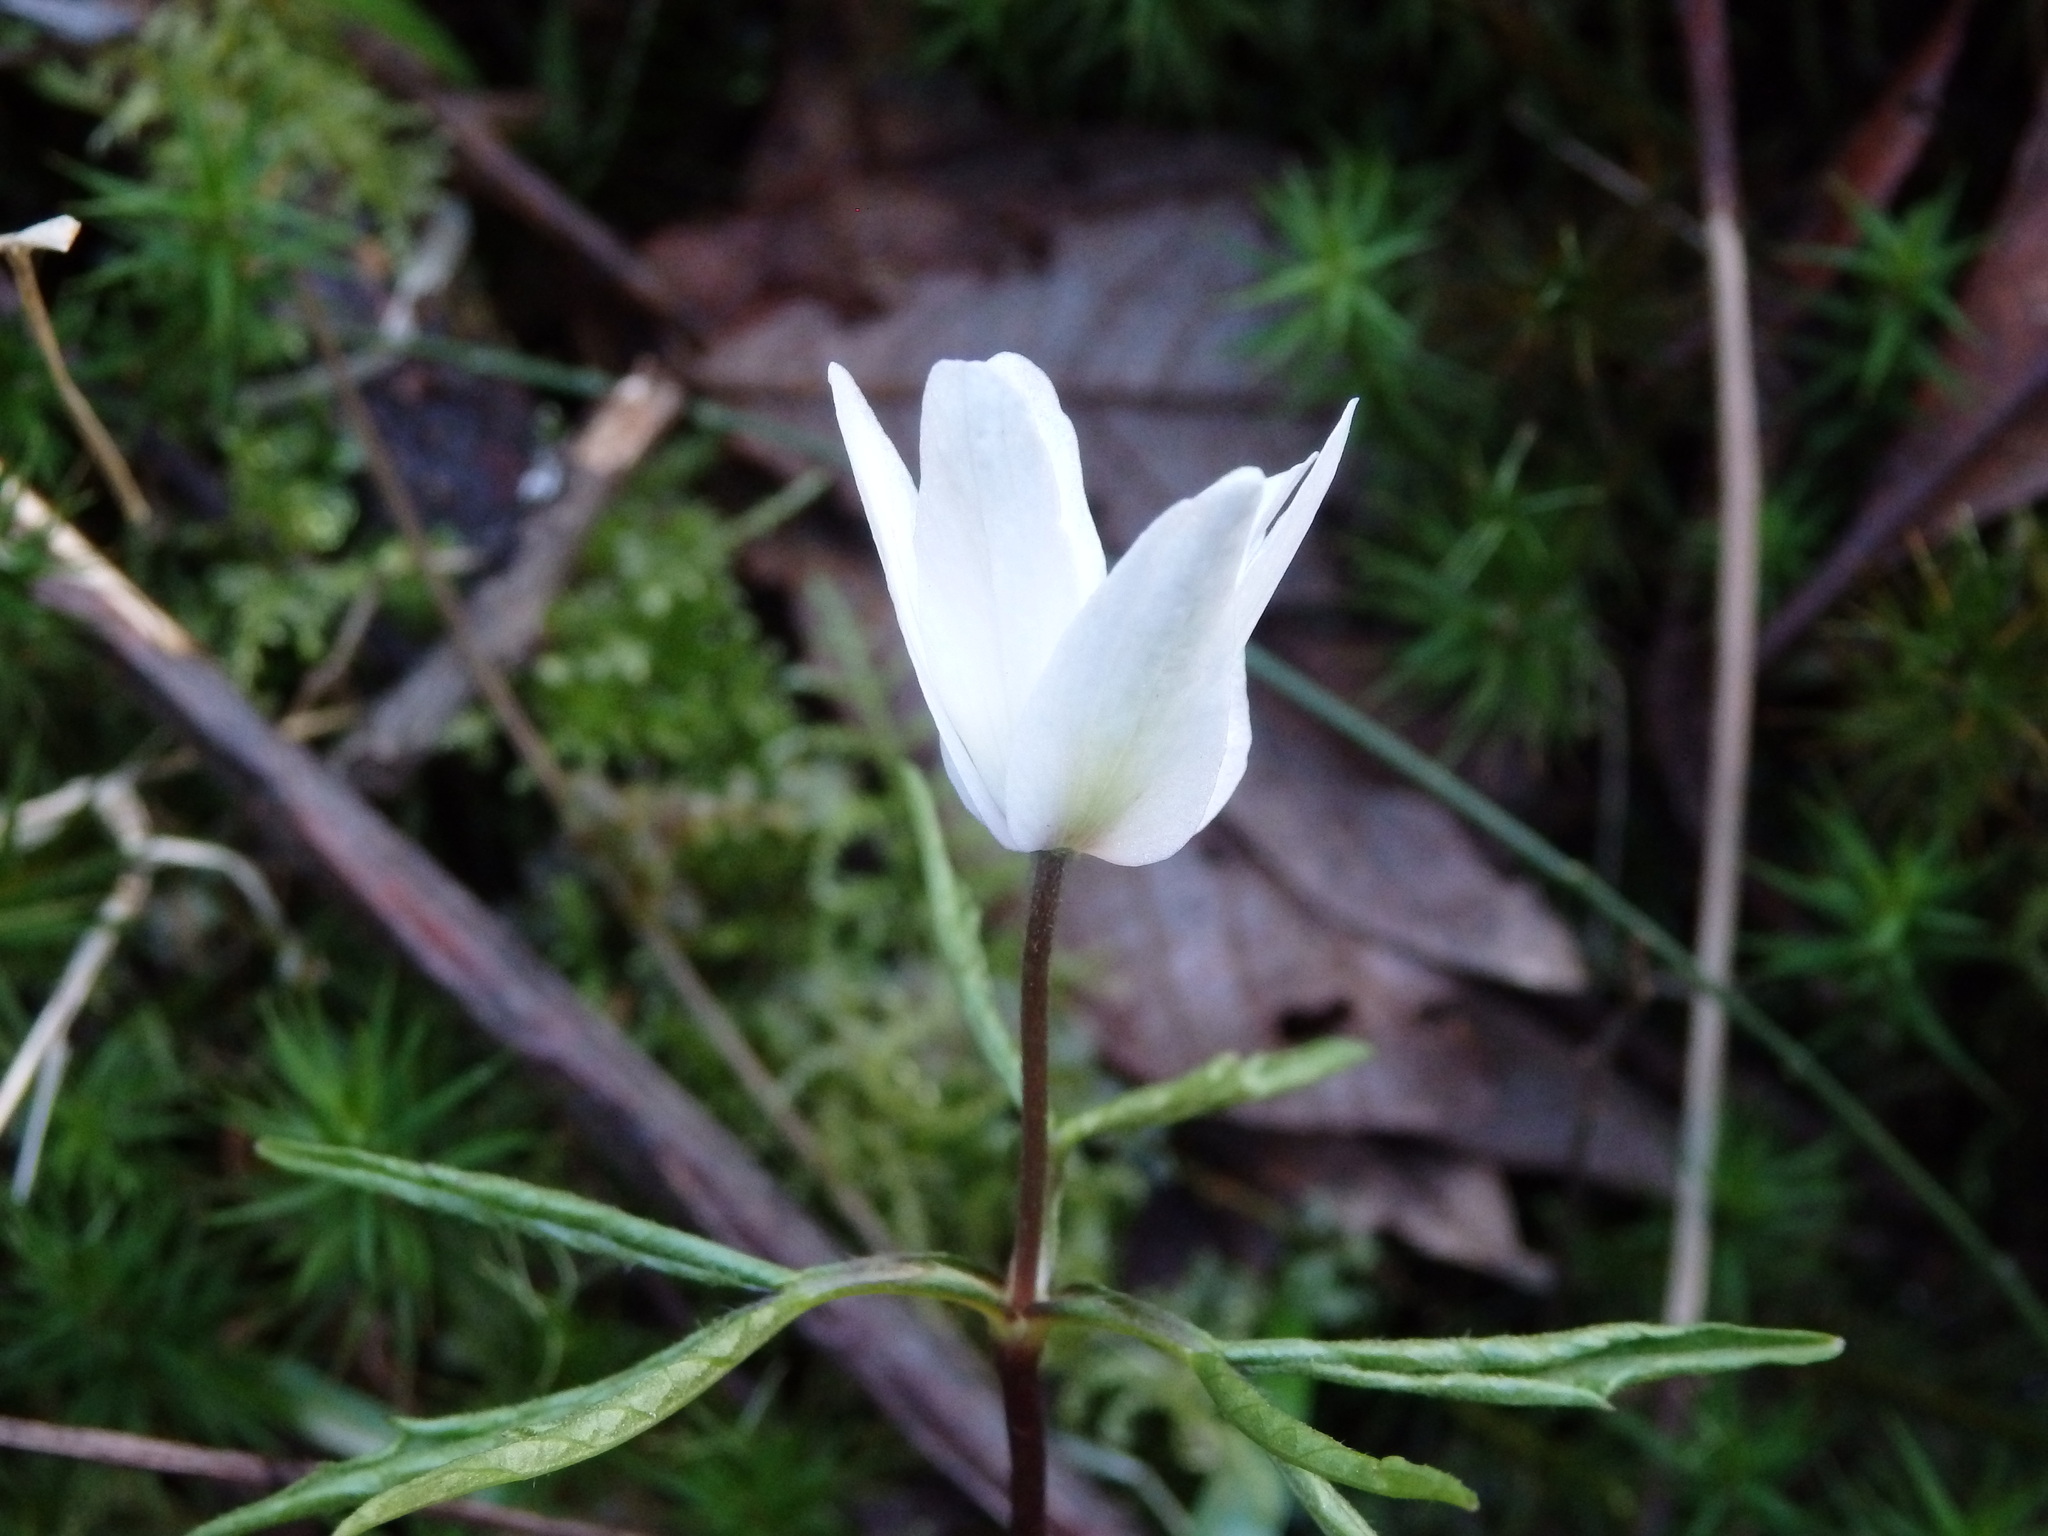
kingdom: Plantae
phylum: Tracheophyta
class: Magnoliopsida
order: Ranunculales
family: Ranunculaceae
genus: Anemone
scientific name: Anemone trifolia
